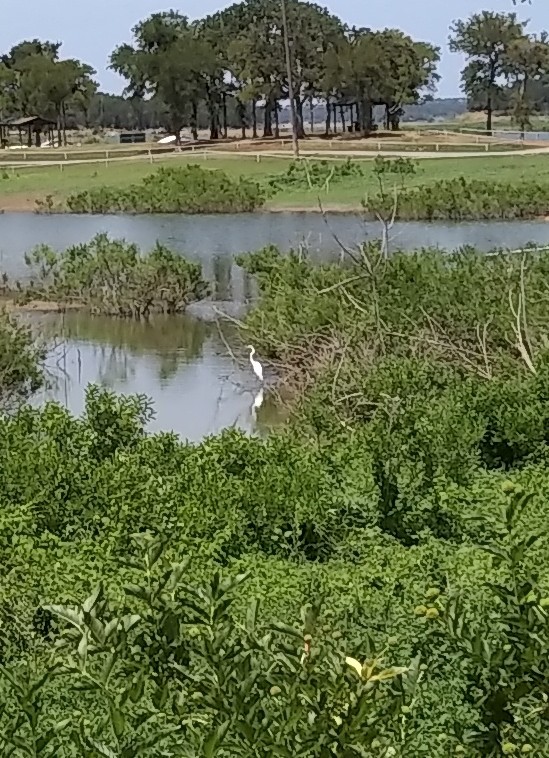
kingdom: Animalia
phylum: Chordata
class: Aves
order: Pelecaniformes
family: Ardeidae
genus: Ardea
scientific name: Ardea alba
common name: Great egret
